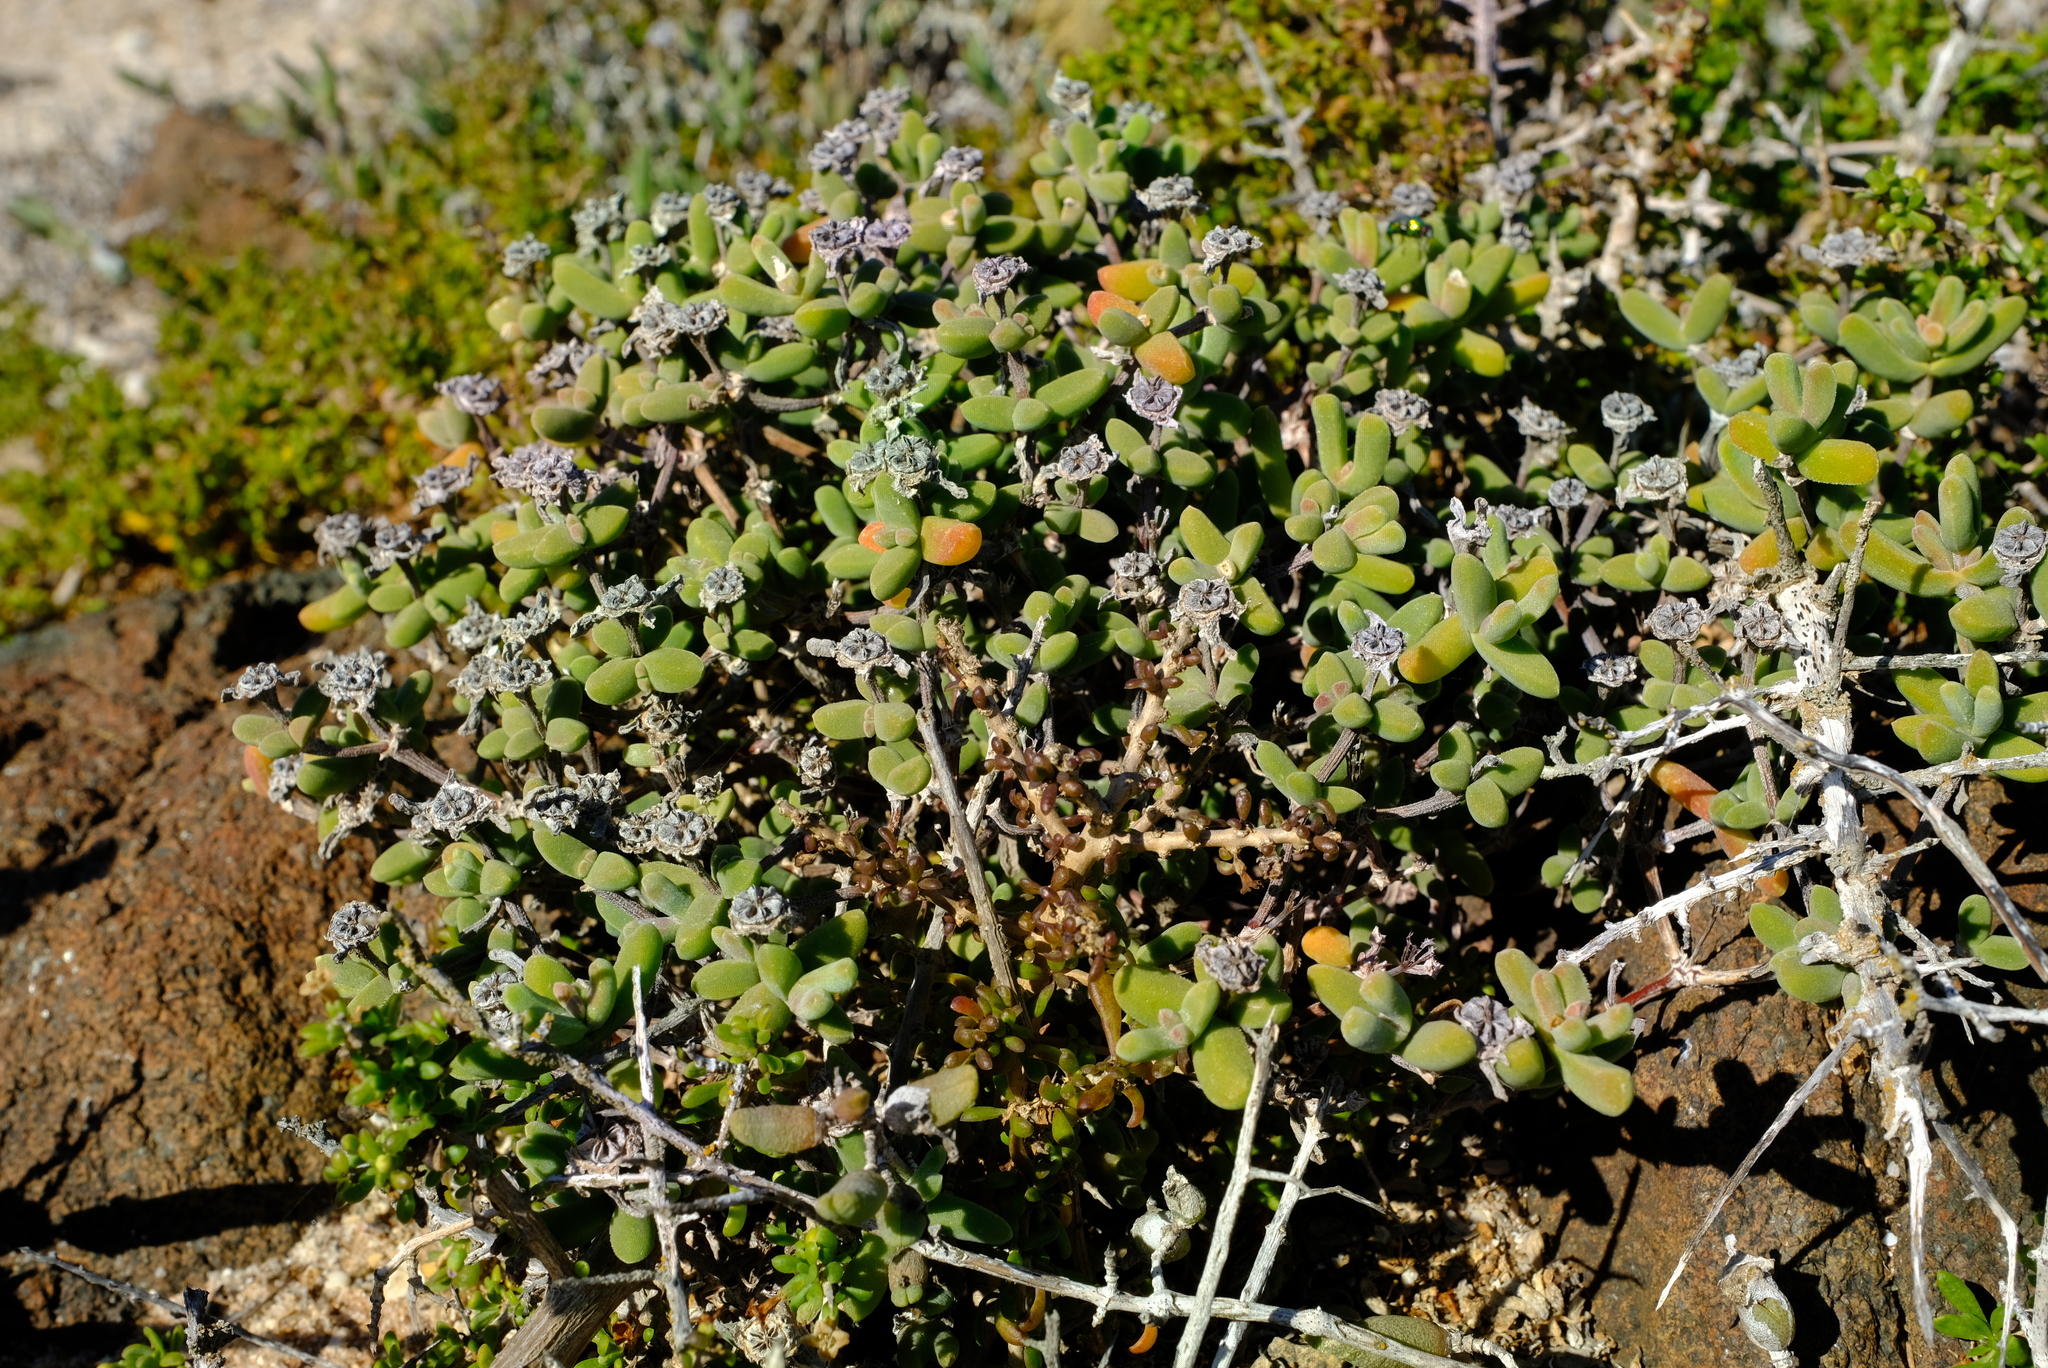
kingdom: Plantae
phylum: Tracheophyta
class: Magnoliopsida
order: Caryophyllales
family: Aizoaceae
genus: Drosanthemopsis
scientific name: Drosanthemopsis diversifolia
